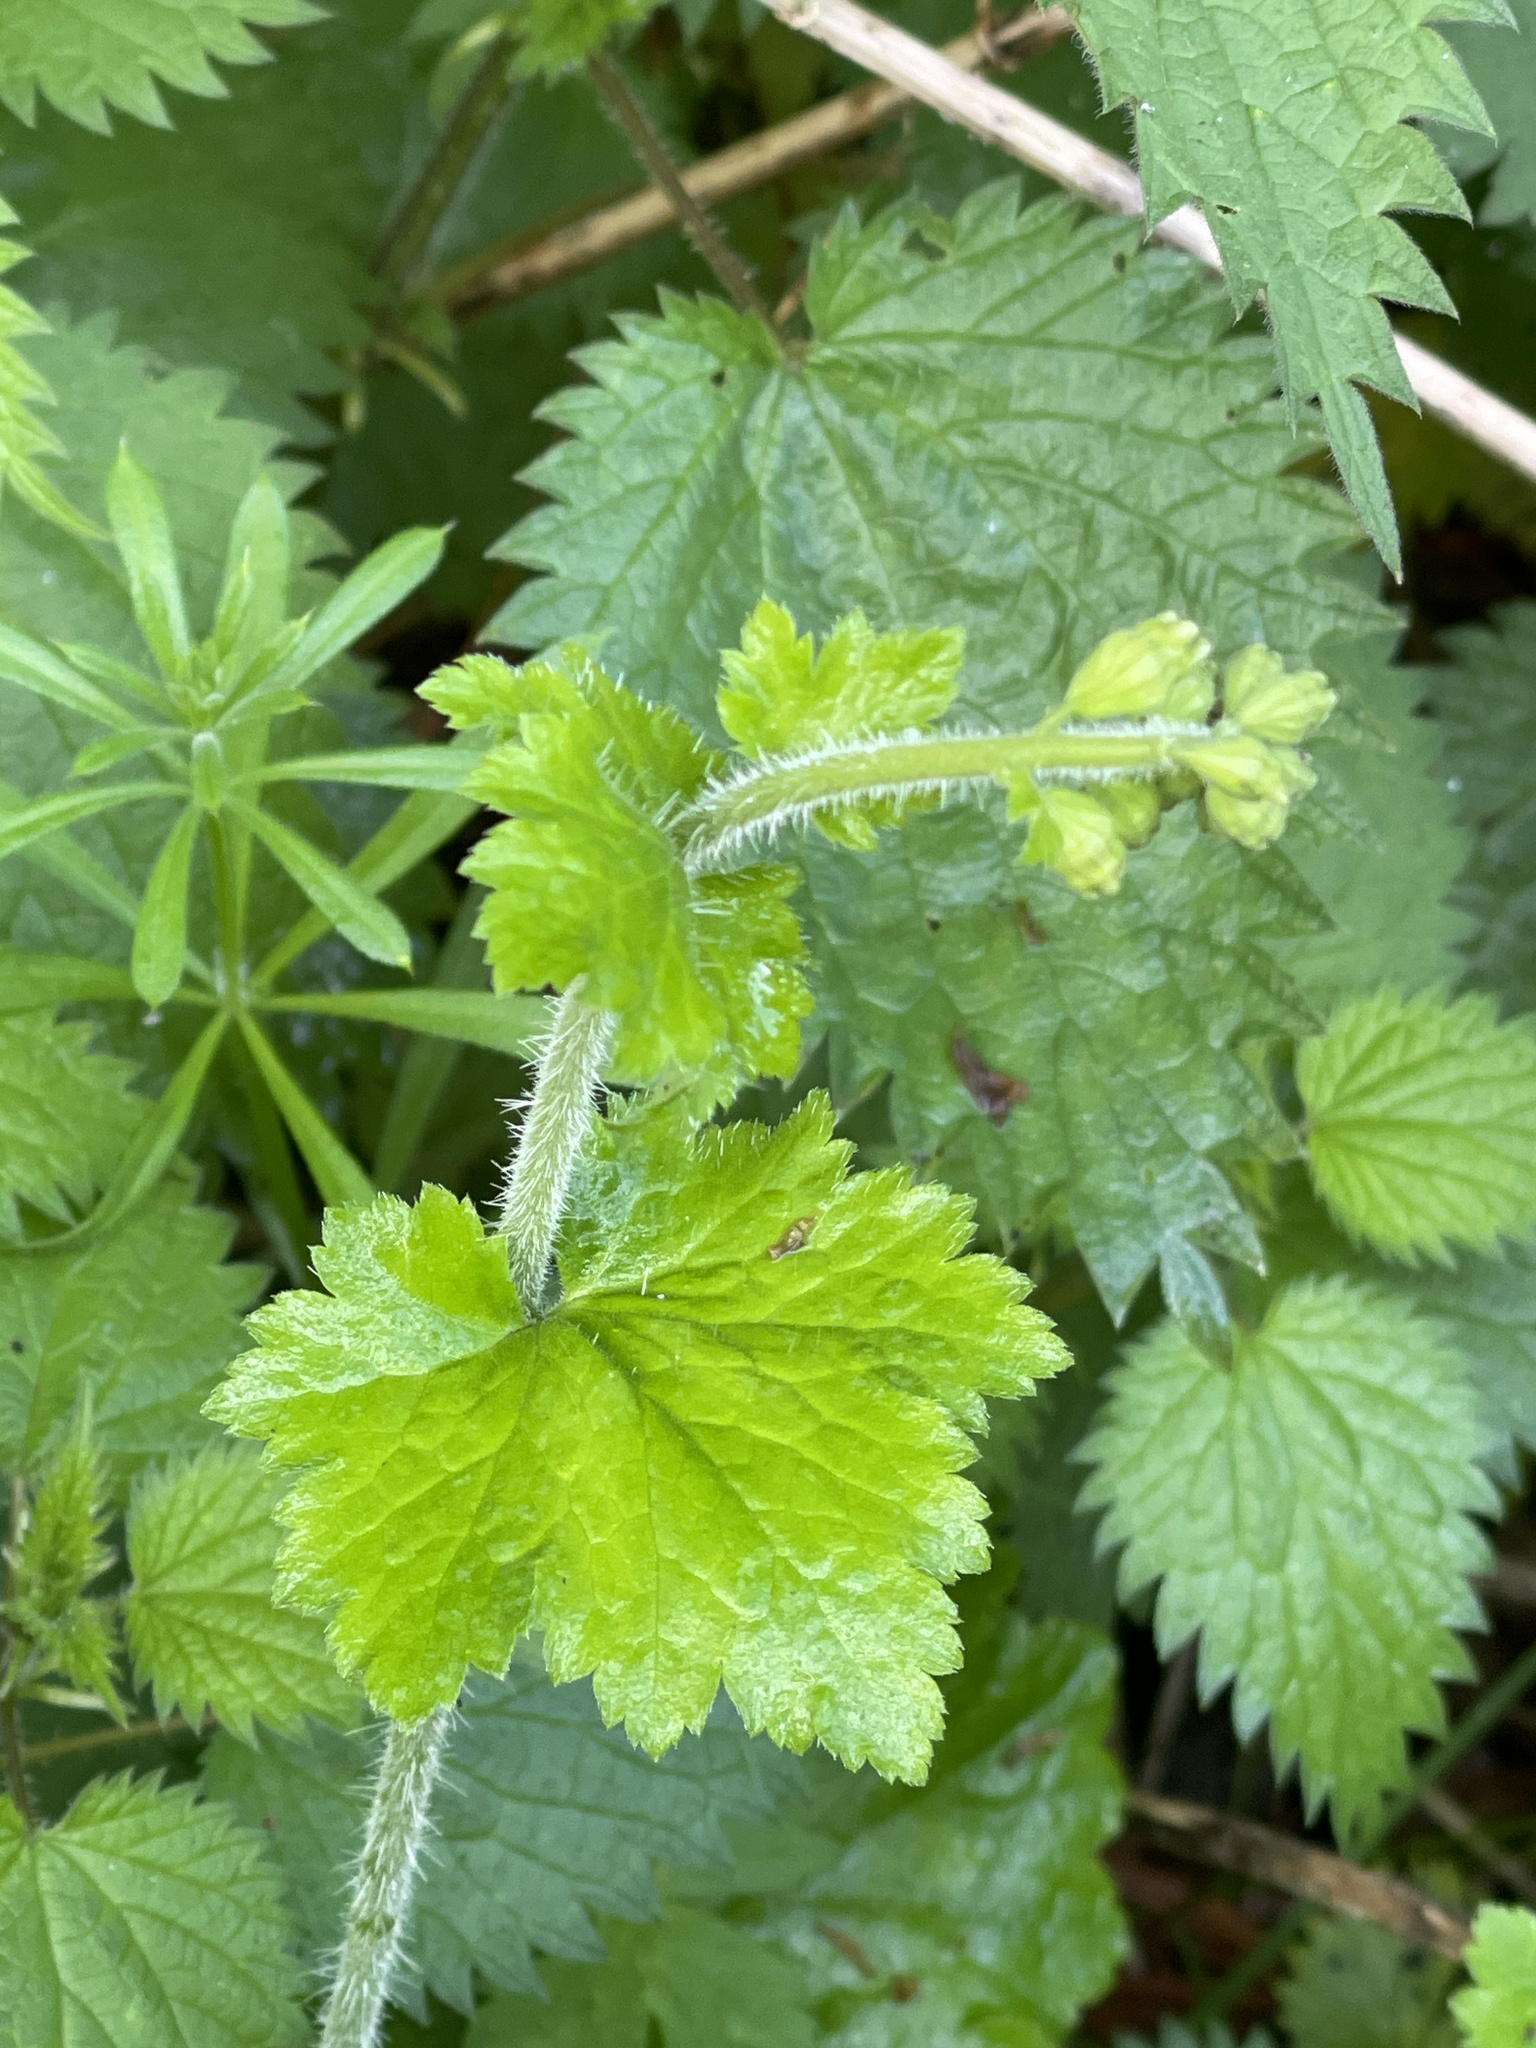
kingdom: Plantae
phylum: Tracheophyta
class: Magnoliopsida
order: Saxifragales
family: Saxifragaceae
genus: Tellima
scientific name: Tellima grandiflora
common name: Fringecups
